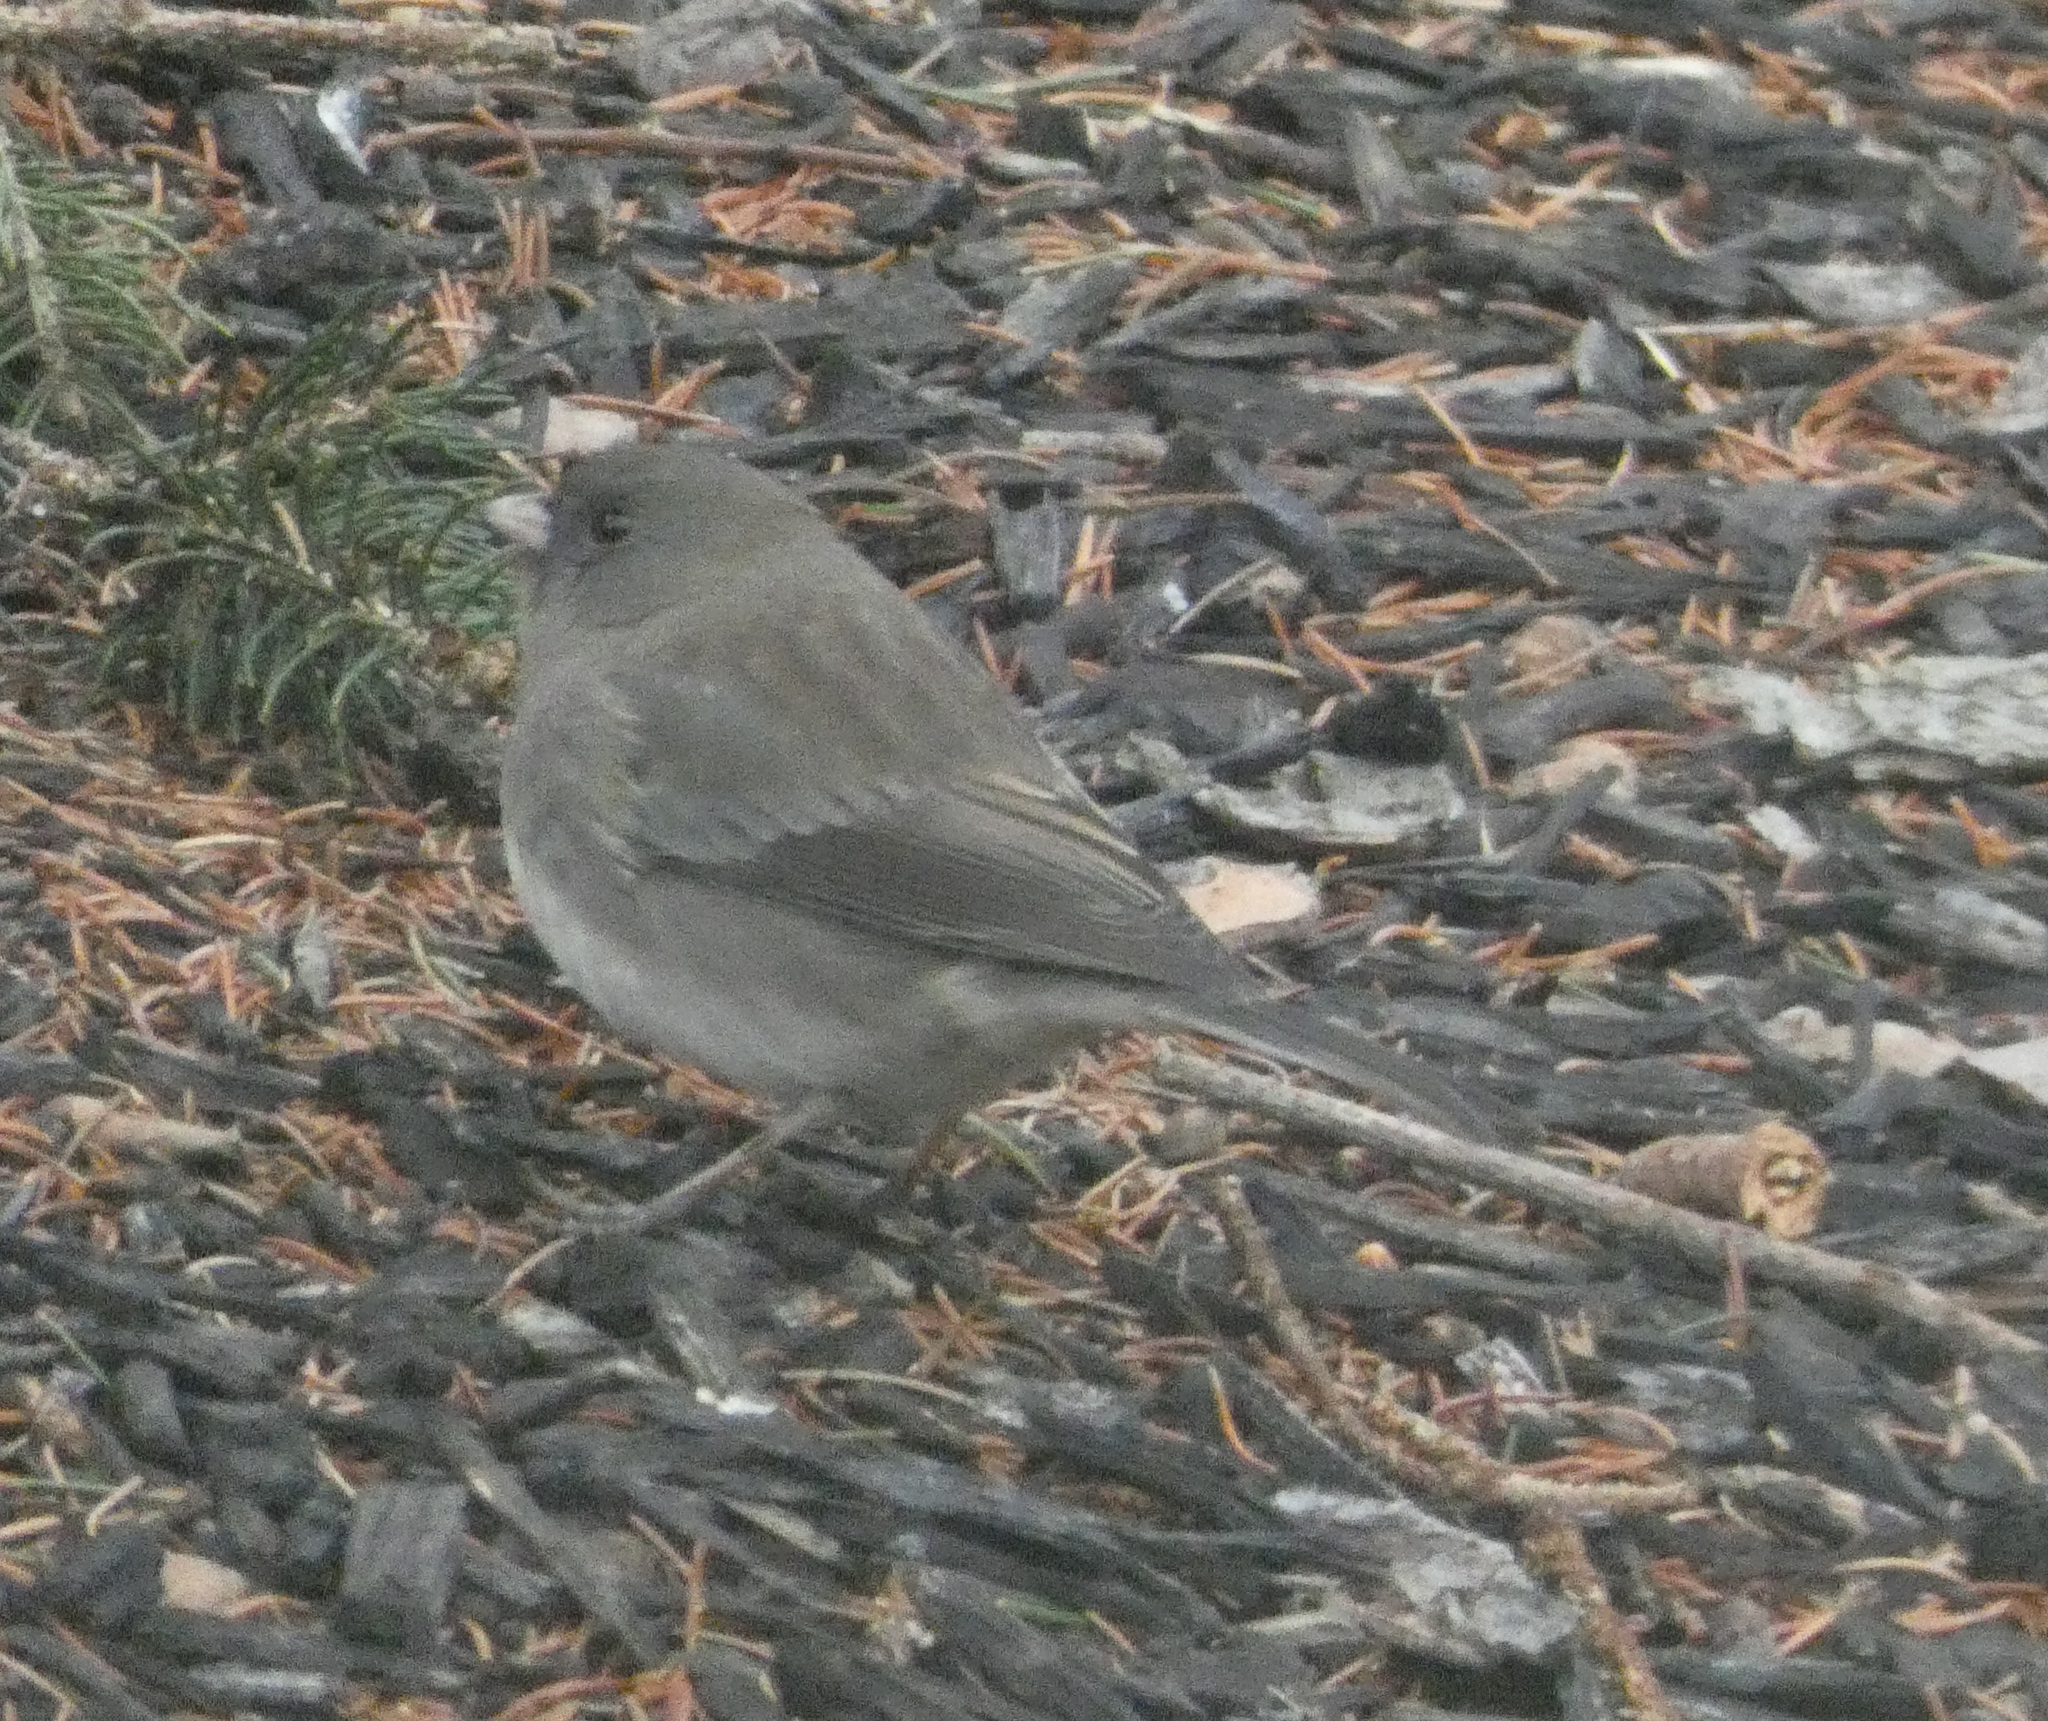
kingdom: Animalia
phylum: Chordata
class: Aves
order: Passeriformes
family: Passerellidae
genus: Junco
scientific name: Junco hyemalis
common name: Dark-eyed junco
